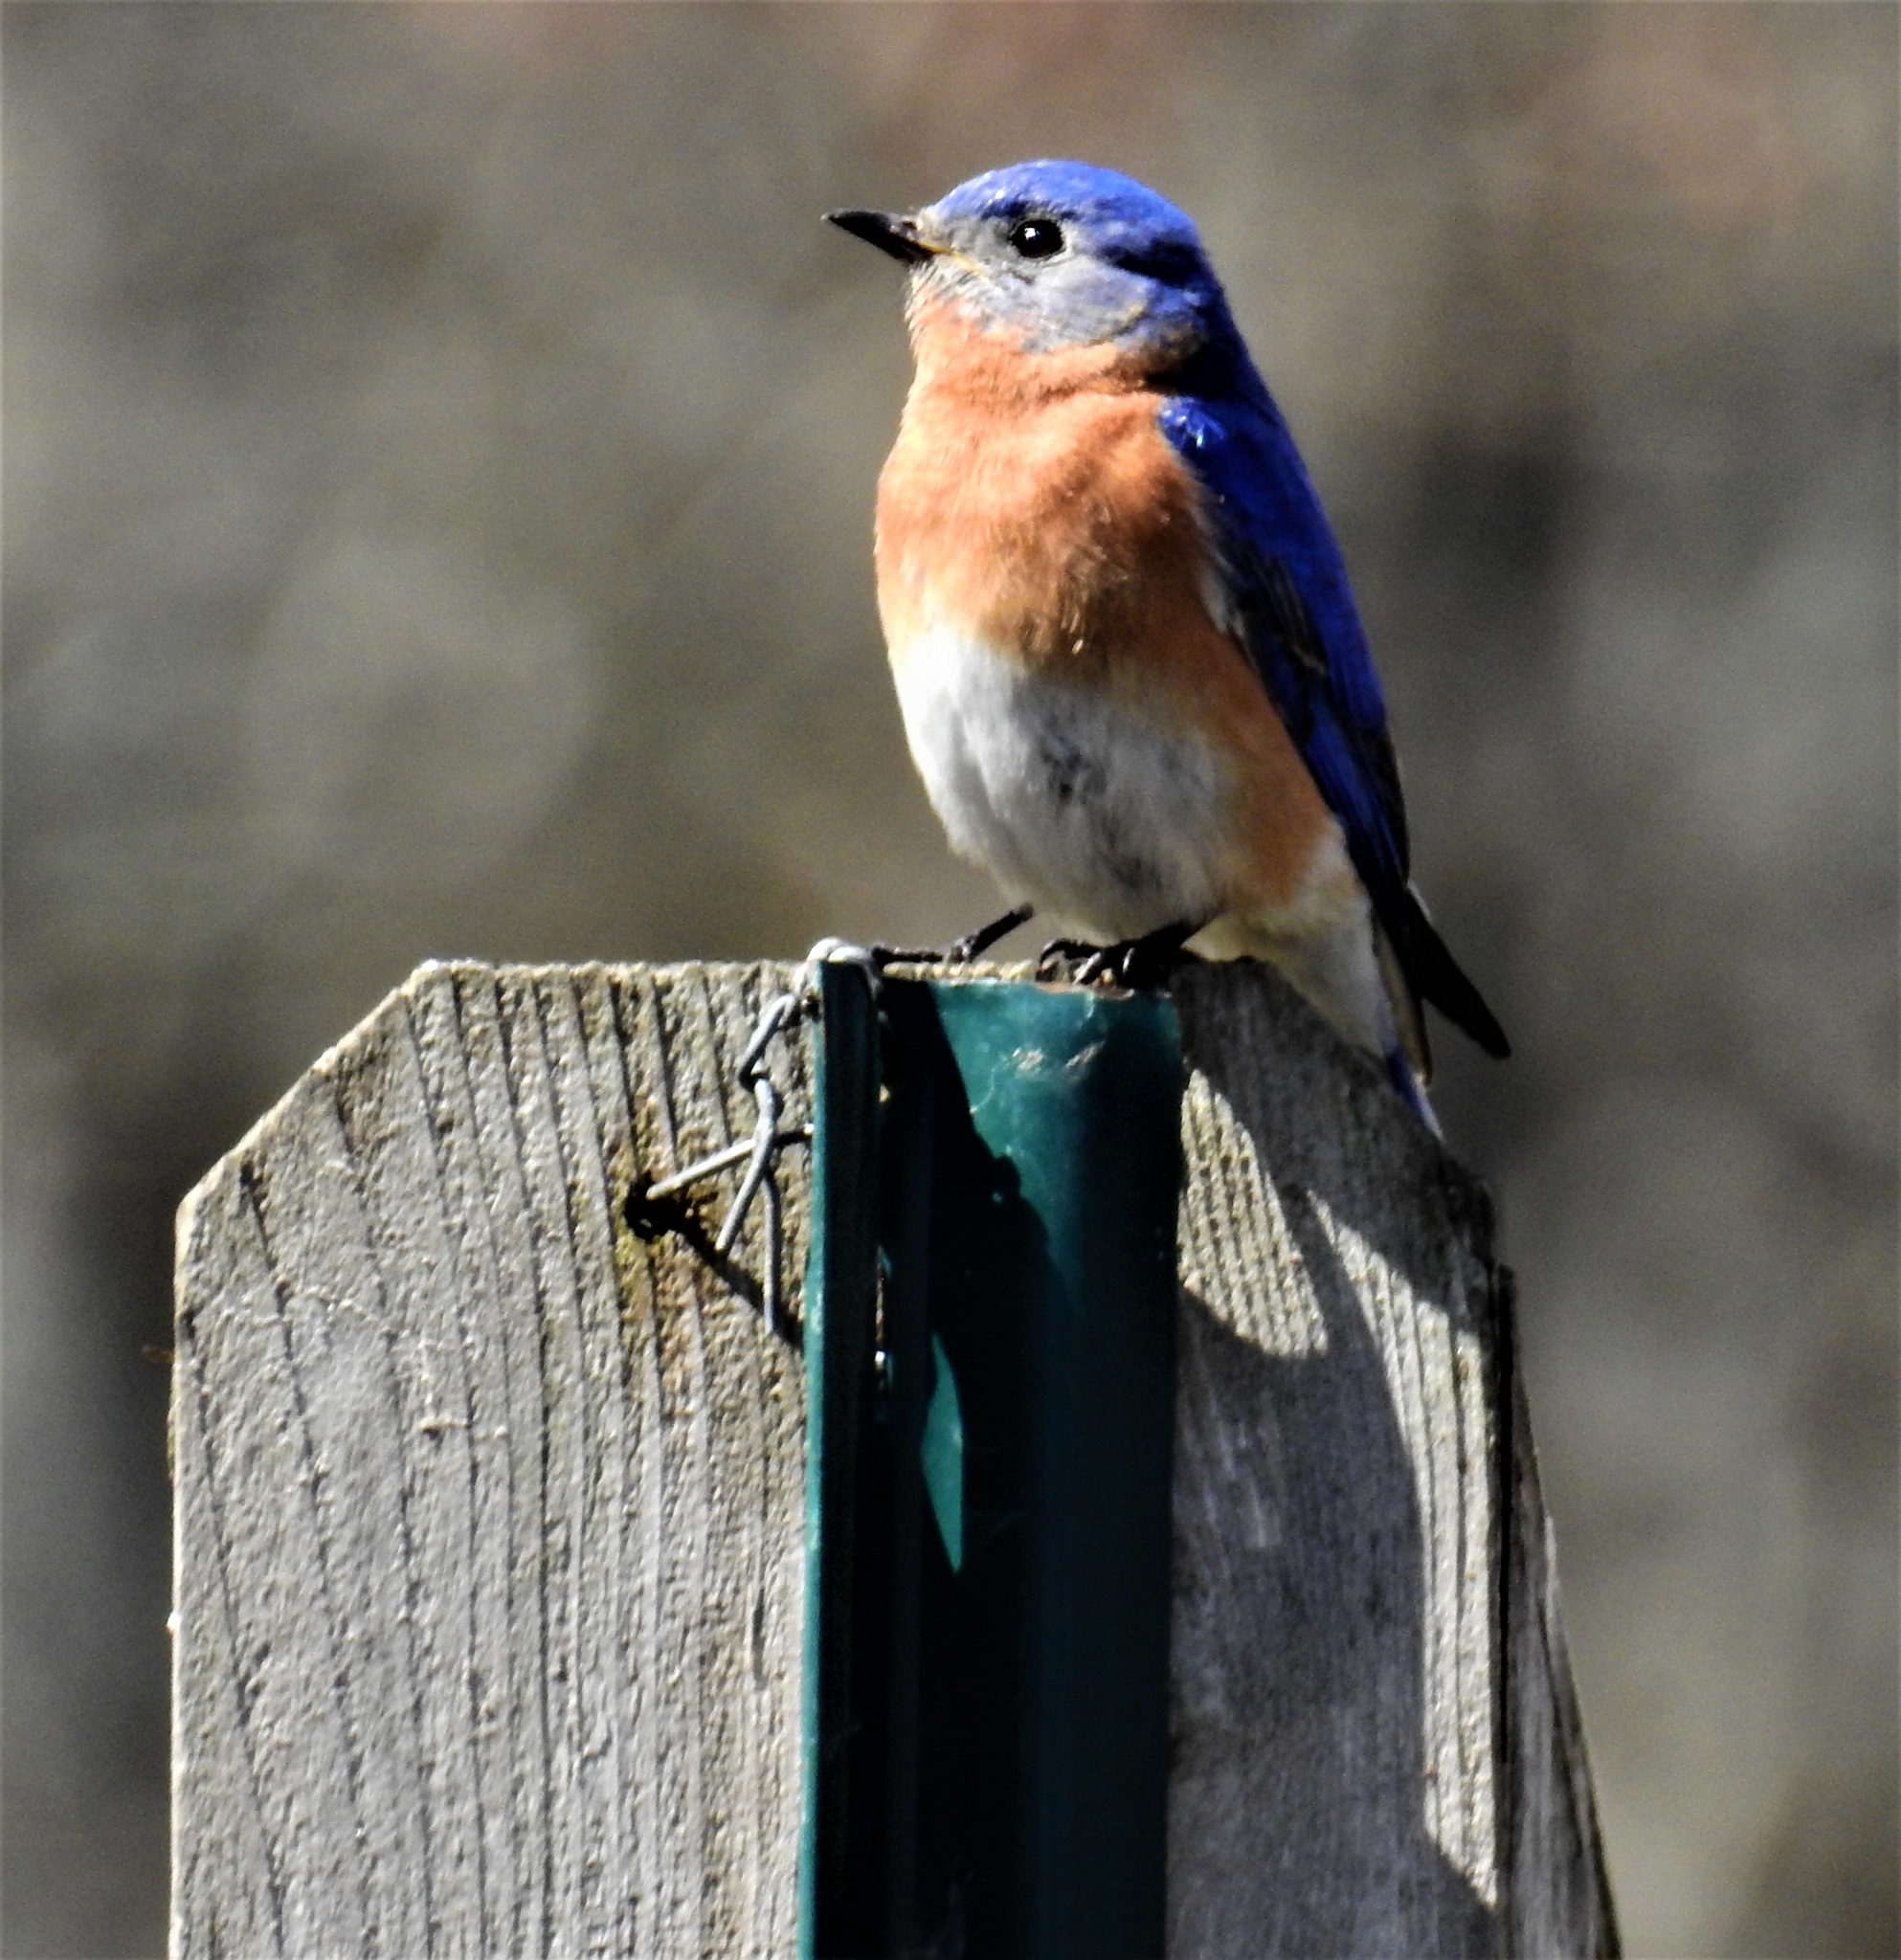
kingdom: Animalia
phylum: Chordata
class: Aves
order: Passeriformes
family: Turdidae
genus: Sialia
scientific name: Sialia sialis
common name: Eastern bluebird
